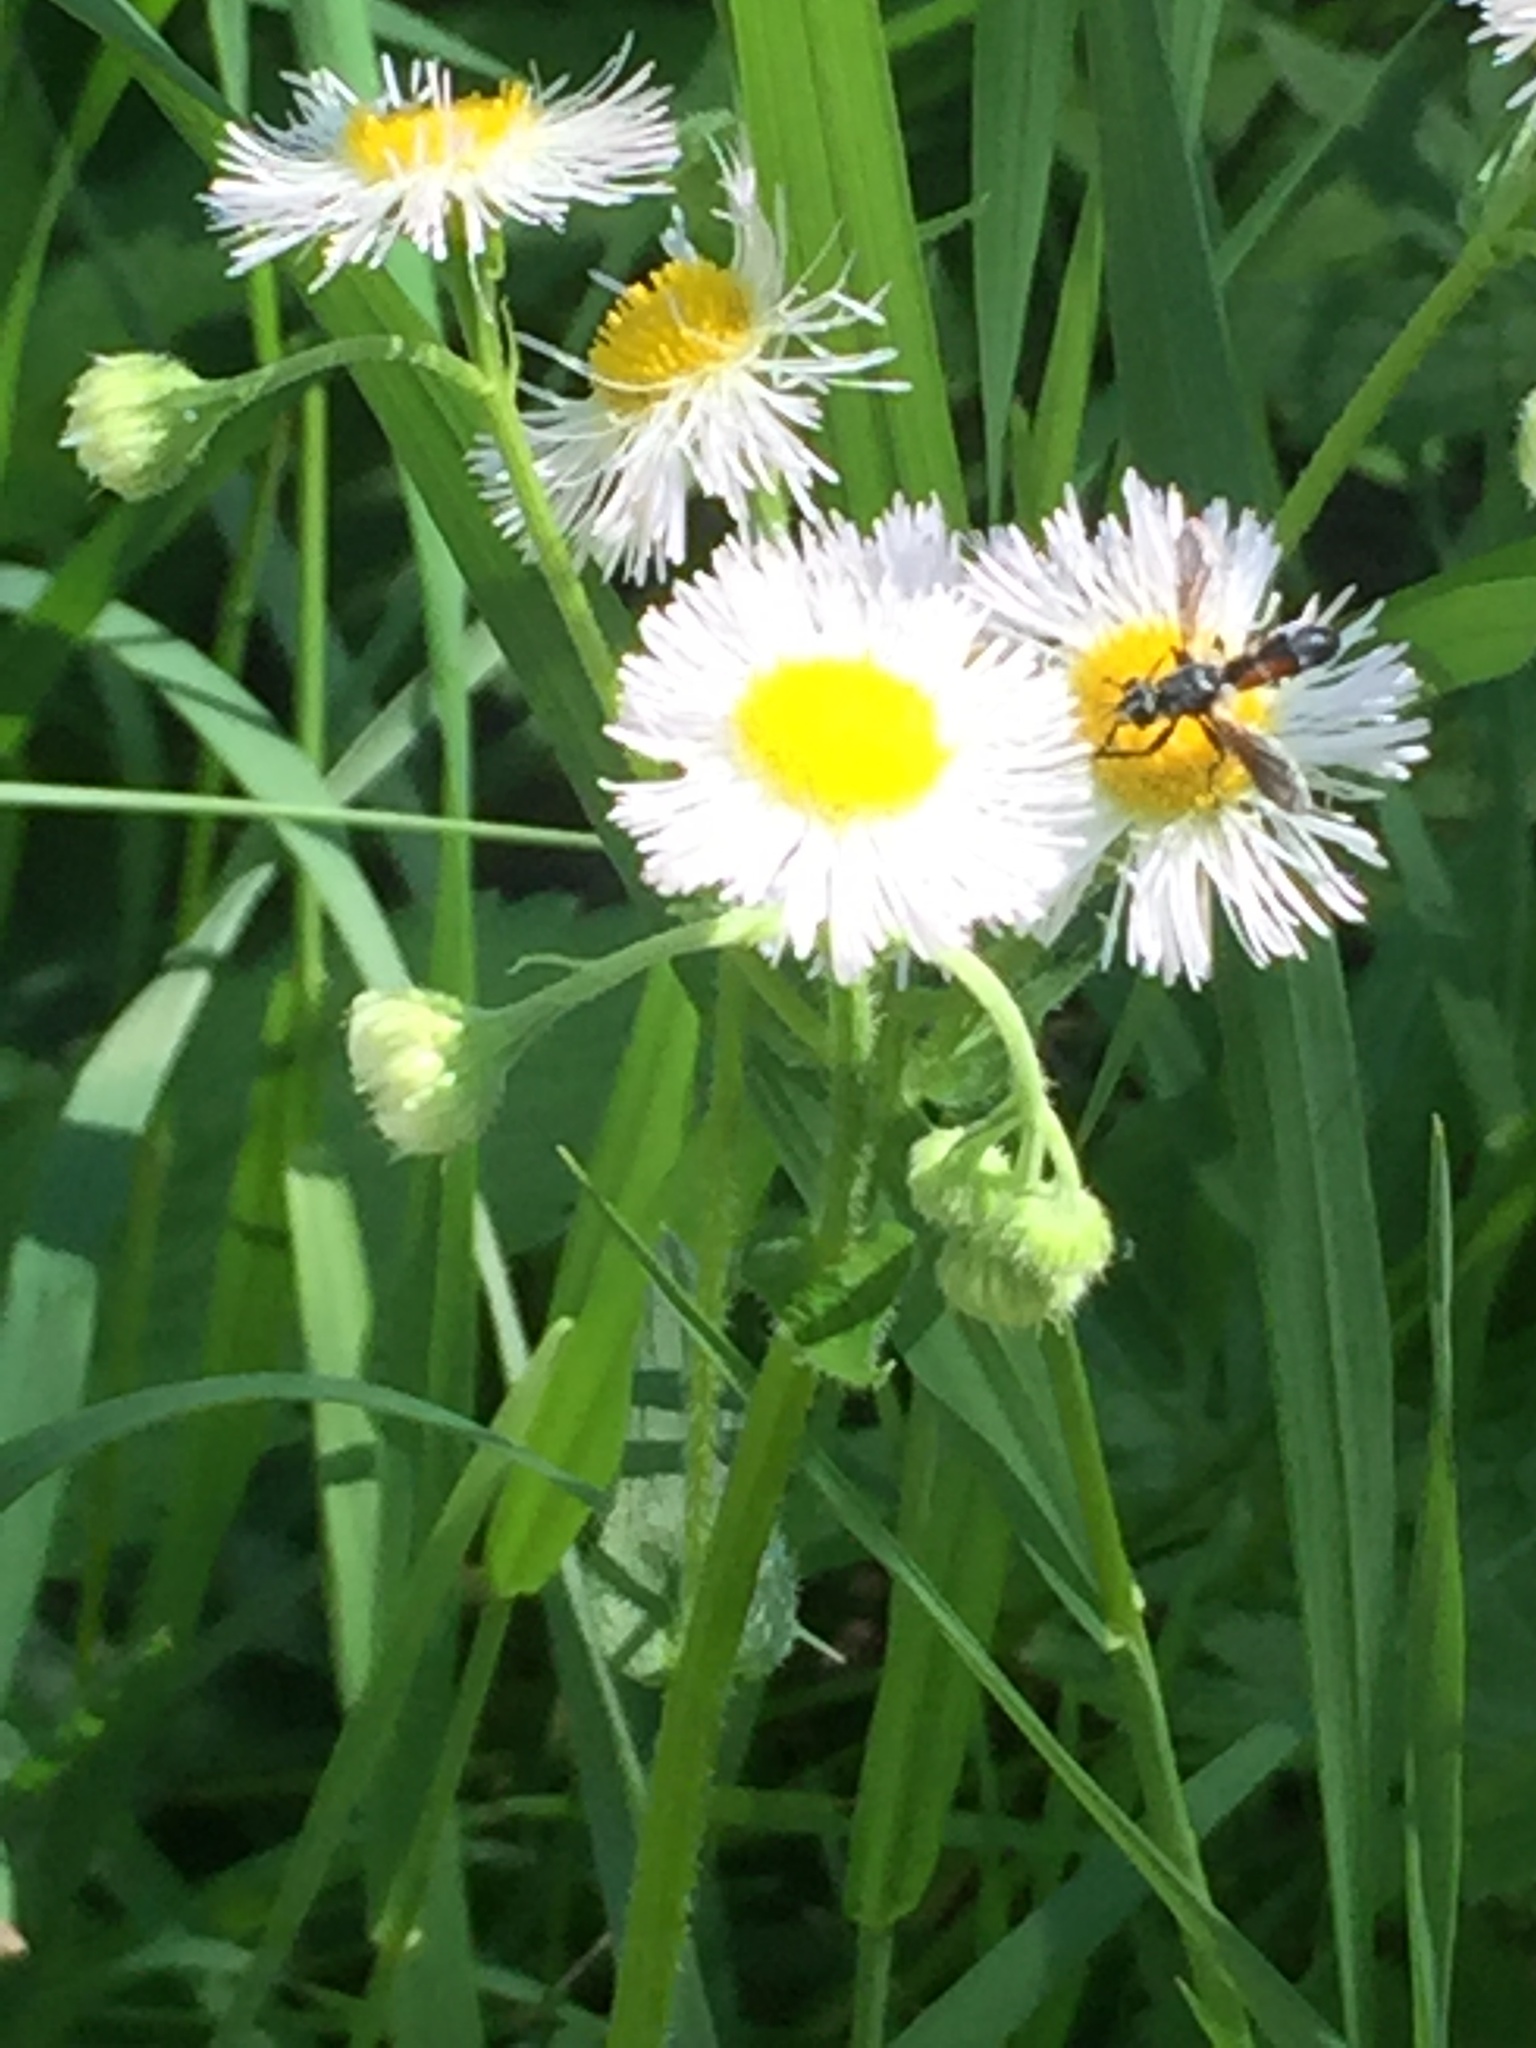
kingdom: Plantae
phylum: Tracheophyta
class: Magnoliopsida
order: Asterales
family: Asteraceae
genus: Erigeron
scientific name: Erigeron philadelphicus
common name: Robin's-plantain
